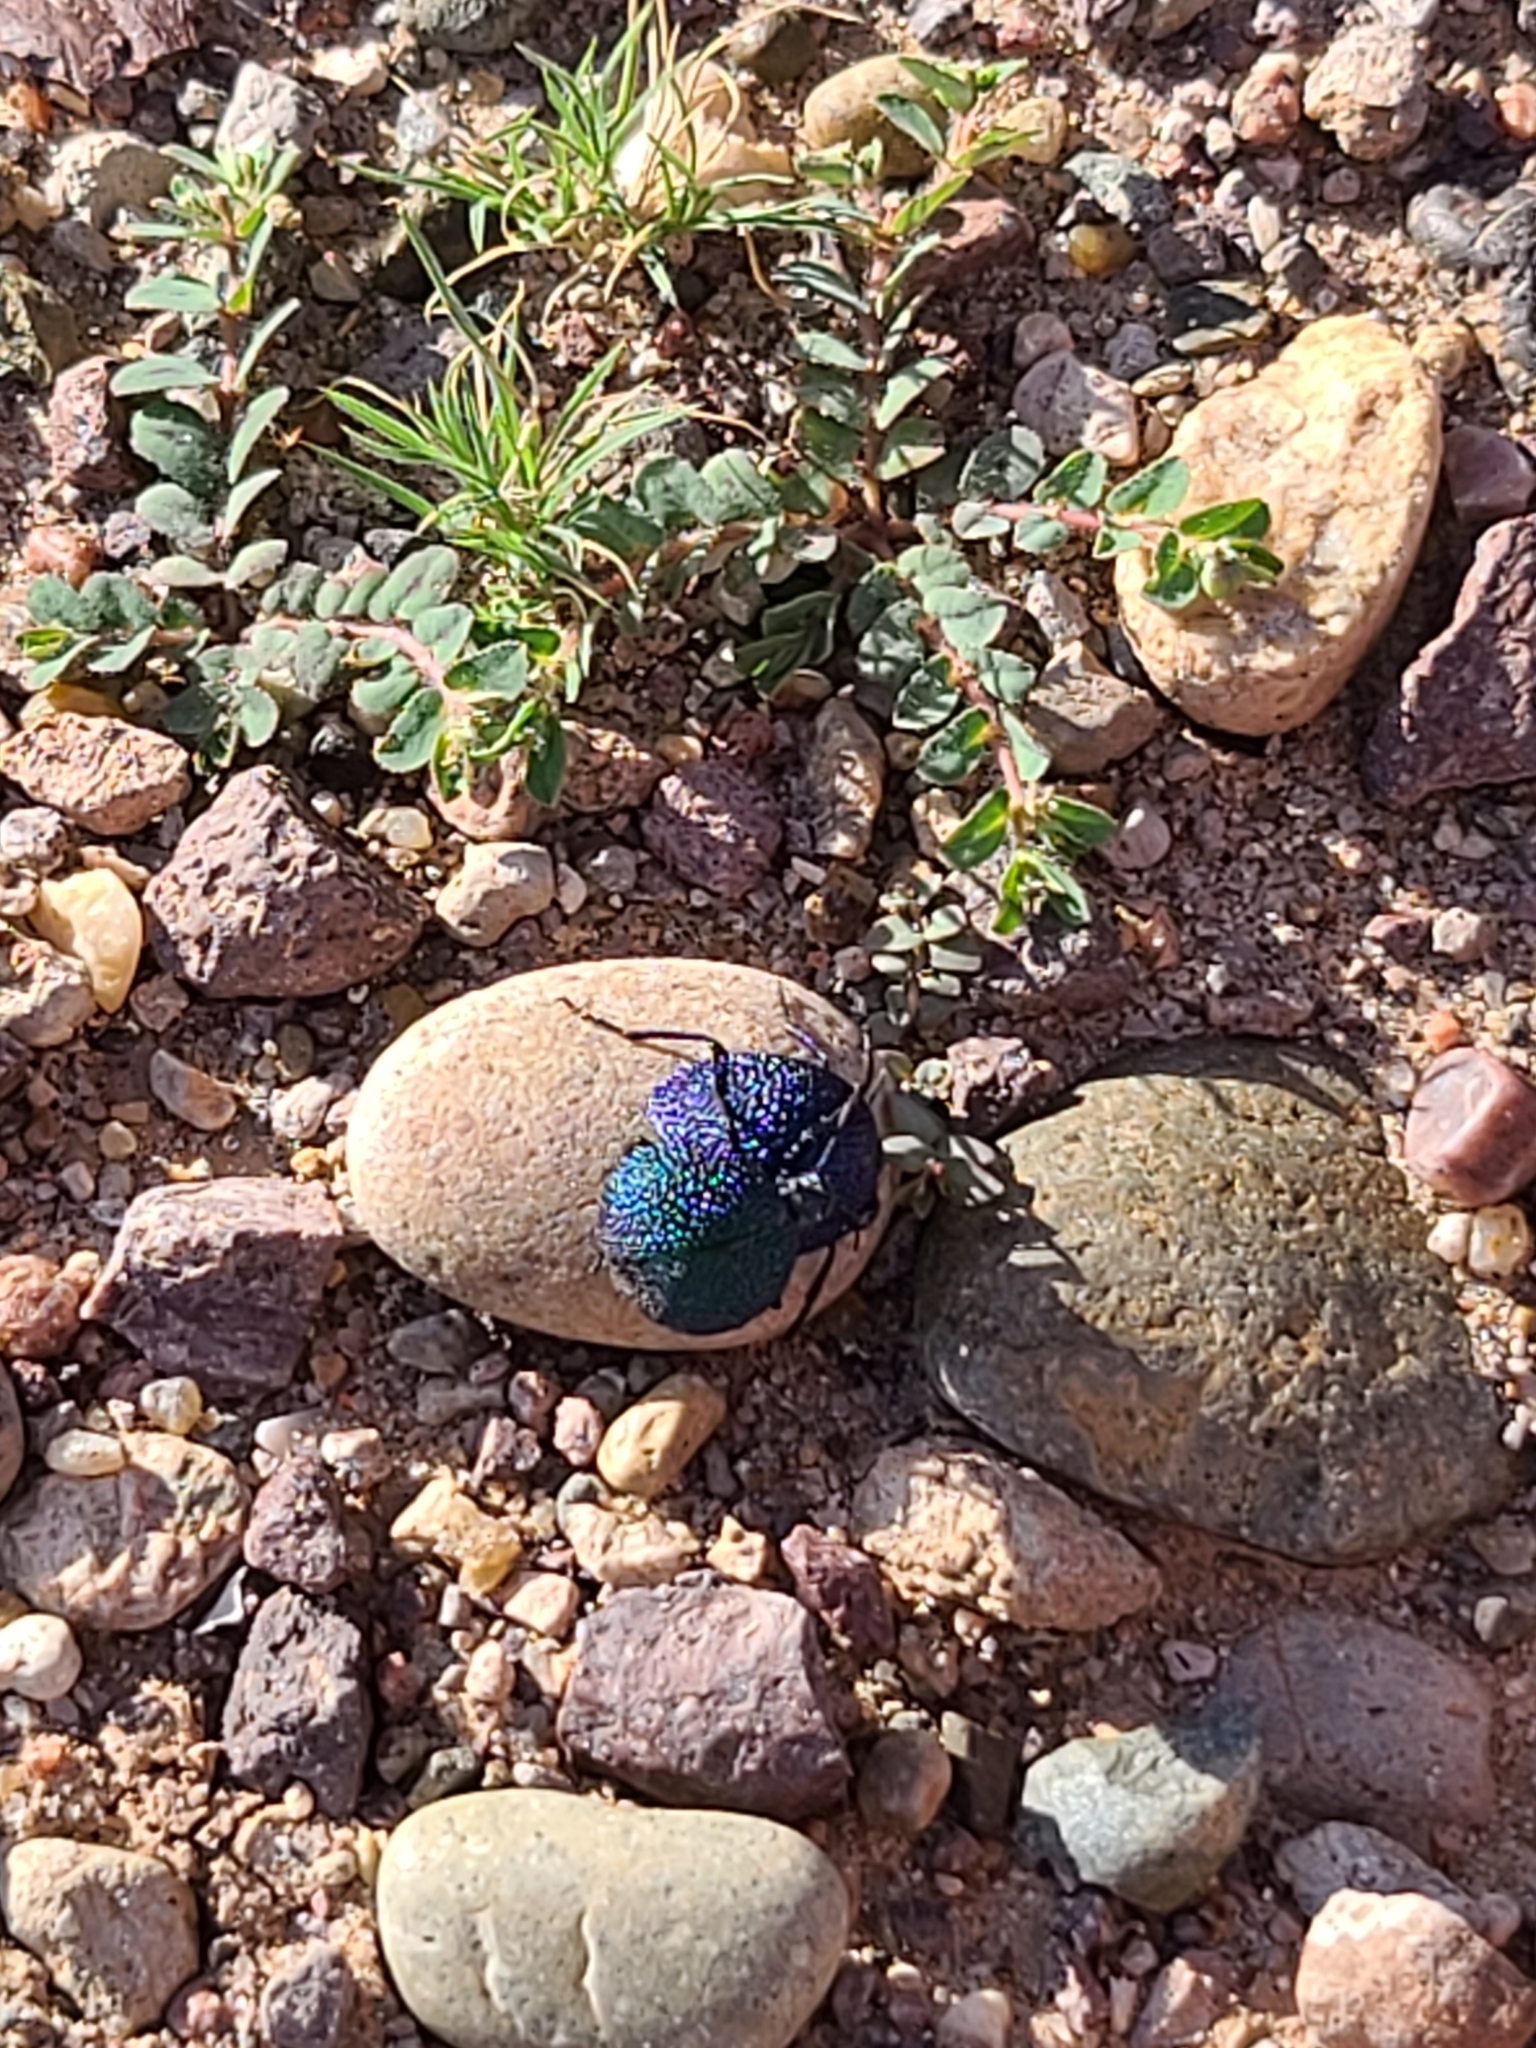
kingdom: Animalia
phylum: Arthropoda
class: Insecta
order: Coleoptera
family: Meloidae
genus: Cysteodemus
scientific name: Cysteodemus wislizeni
